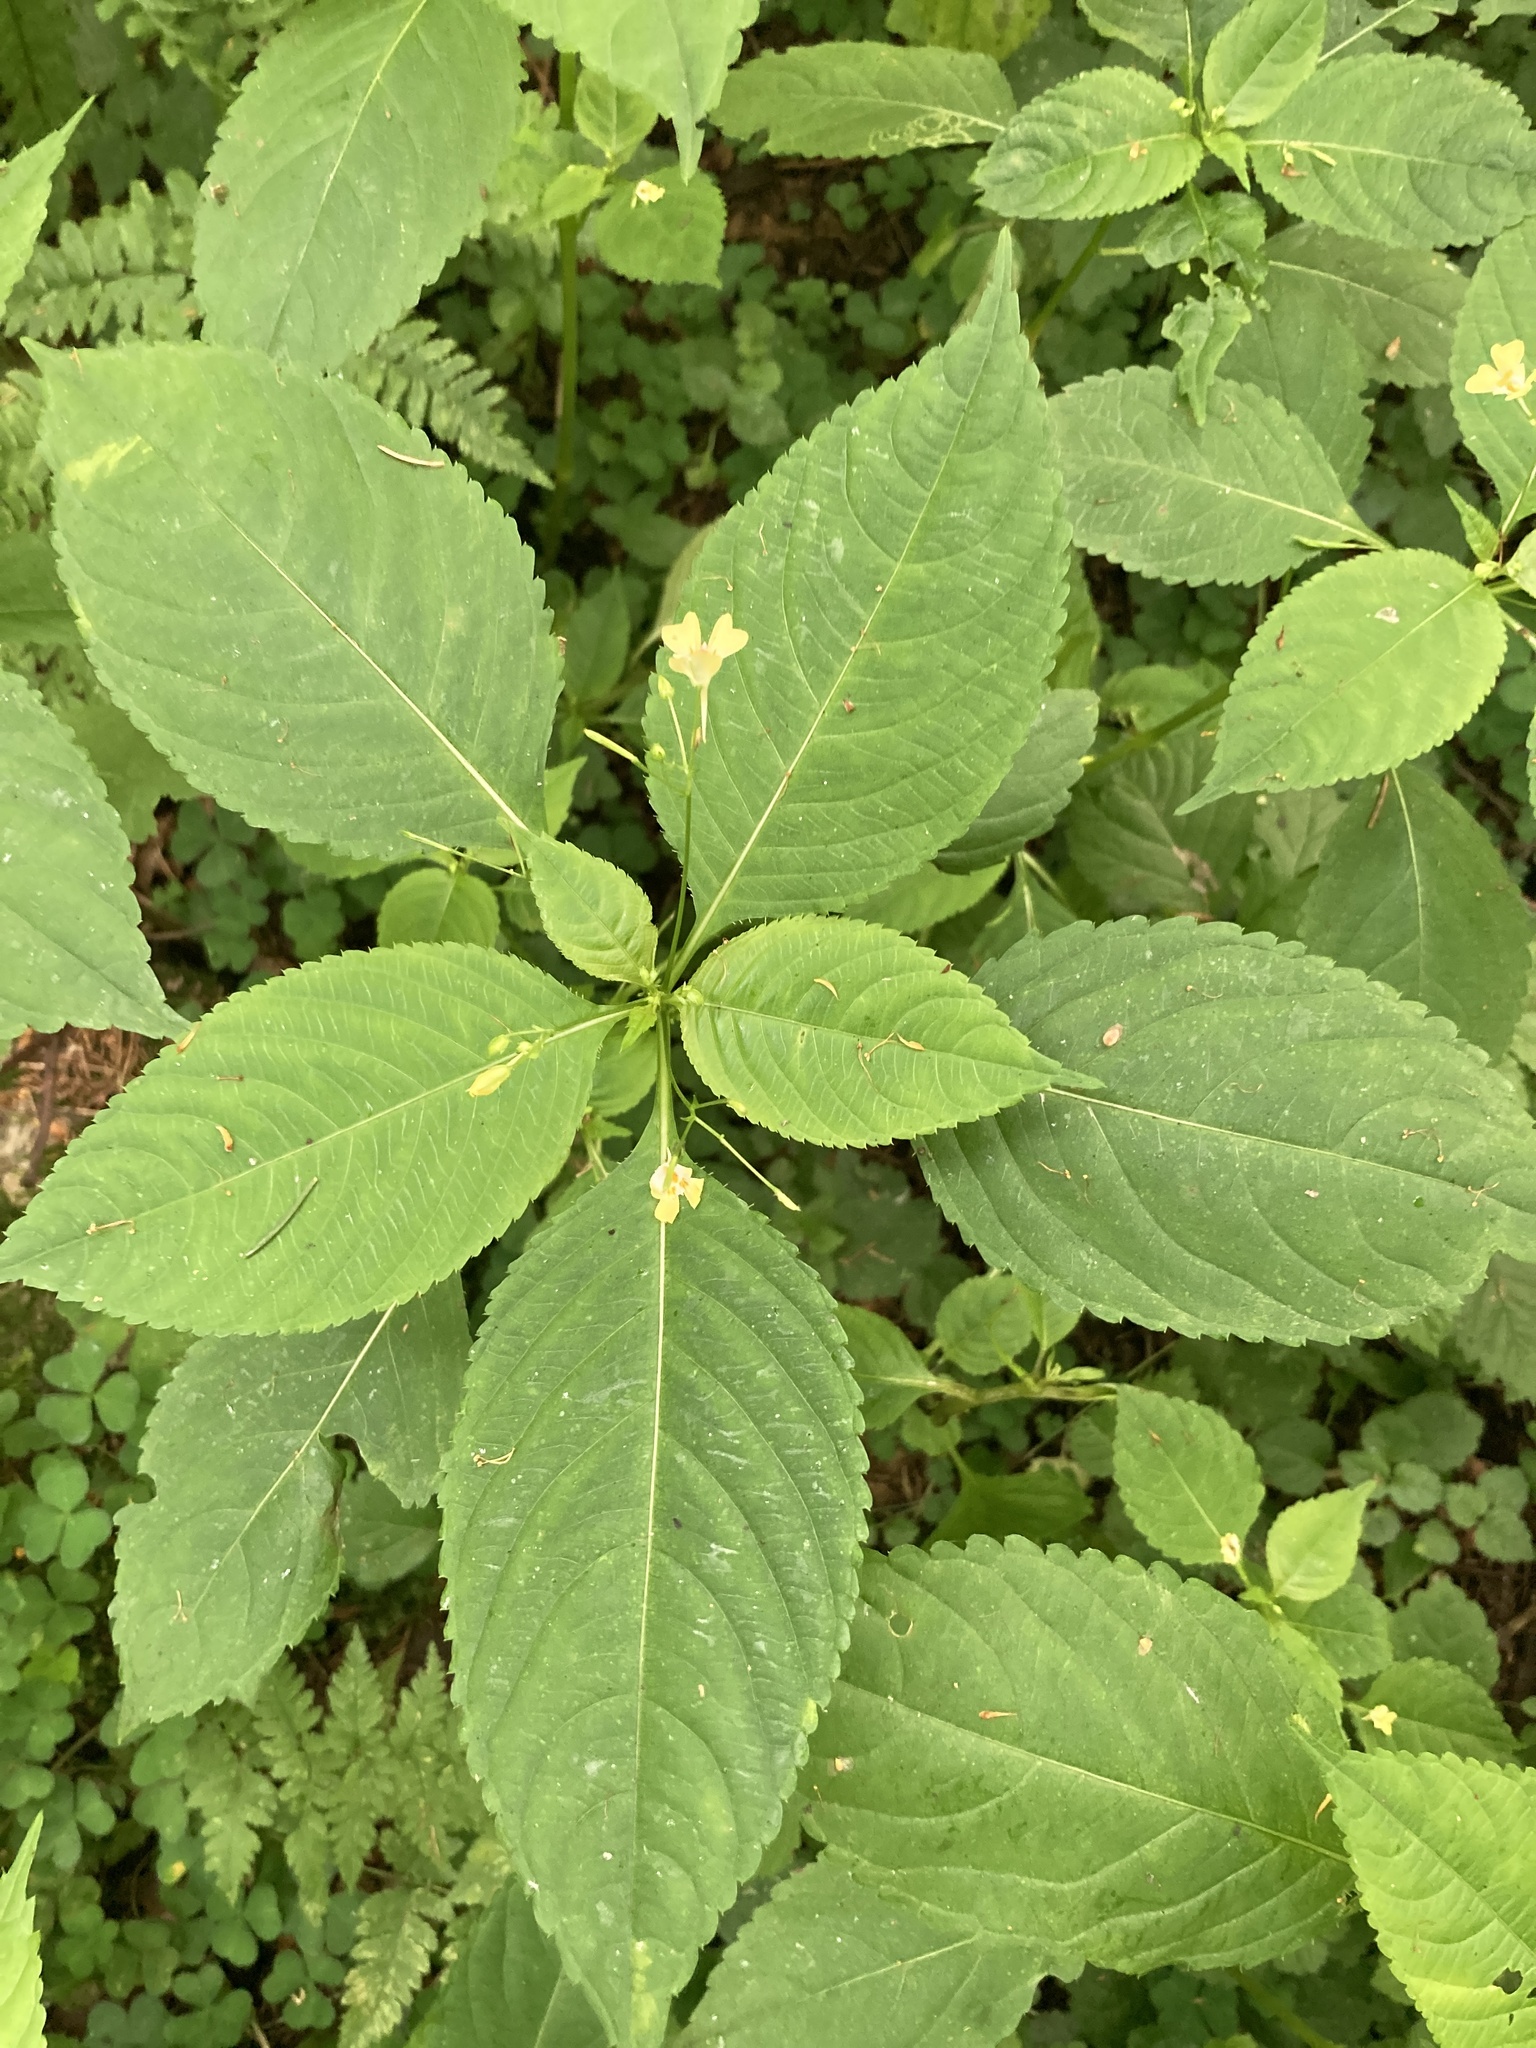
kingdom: Plantae
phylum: Tracheophyta
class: Magnoliopsida
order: Ericales
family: Balsaminaceae
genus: Impatiens
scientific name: Impatiens parviflora
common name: Small balsam
